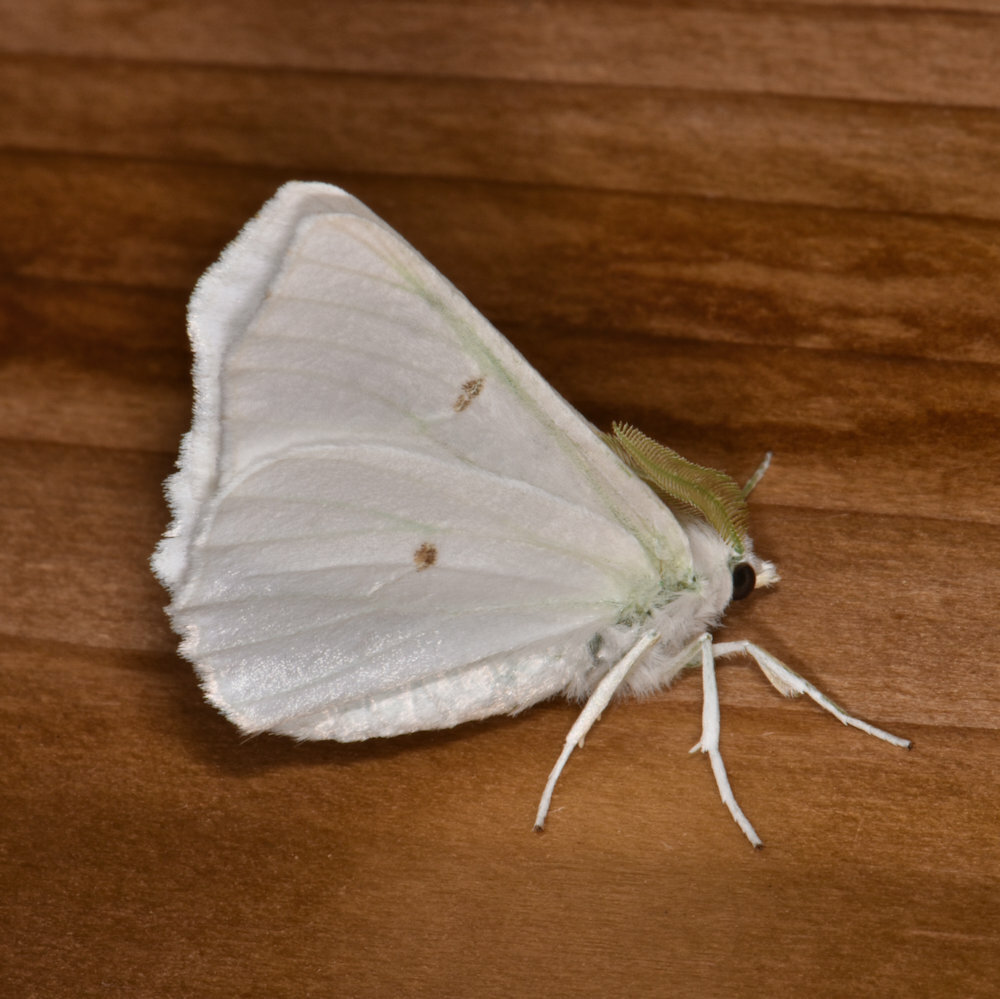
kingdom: Animalia
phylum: Arthropoda
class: Insecta
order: Lepidoptera
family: Geometridae
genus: Ennomos
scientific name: Ennomos subsignaria
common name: Elm spanworm
